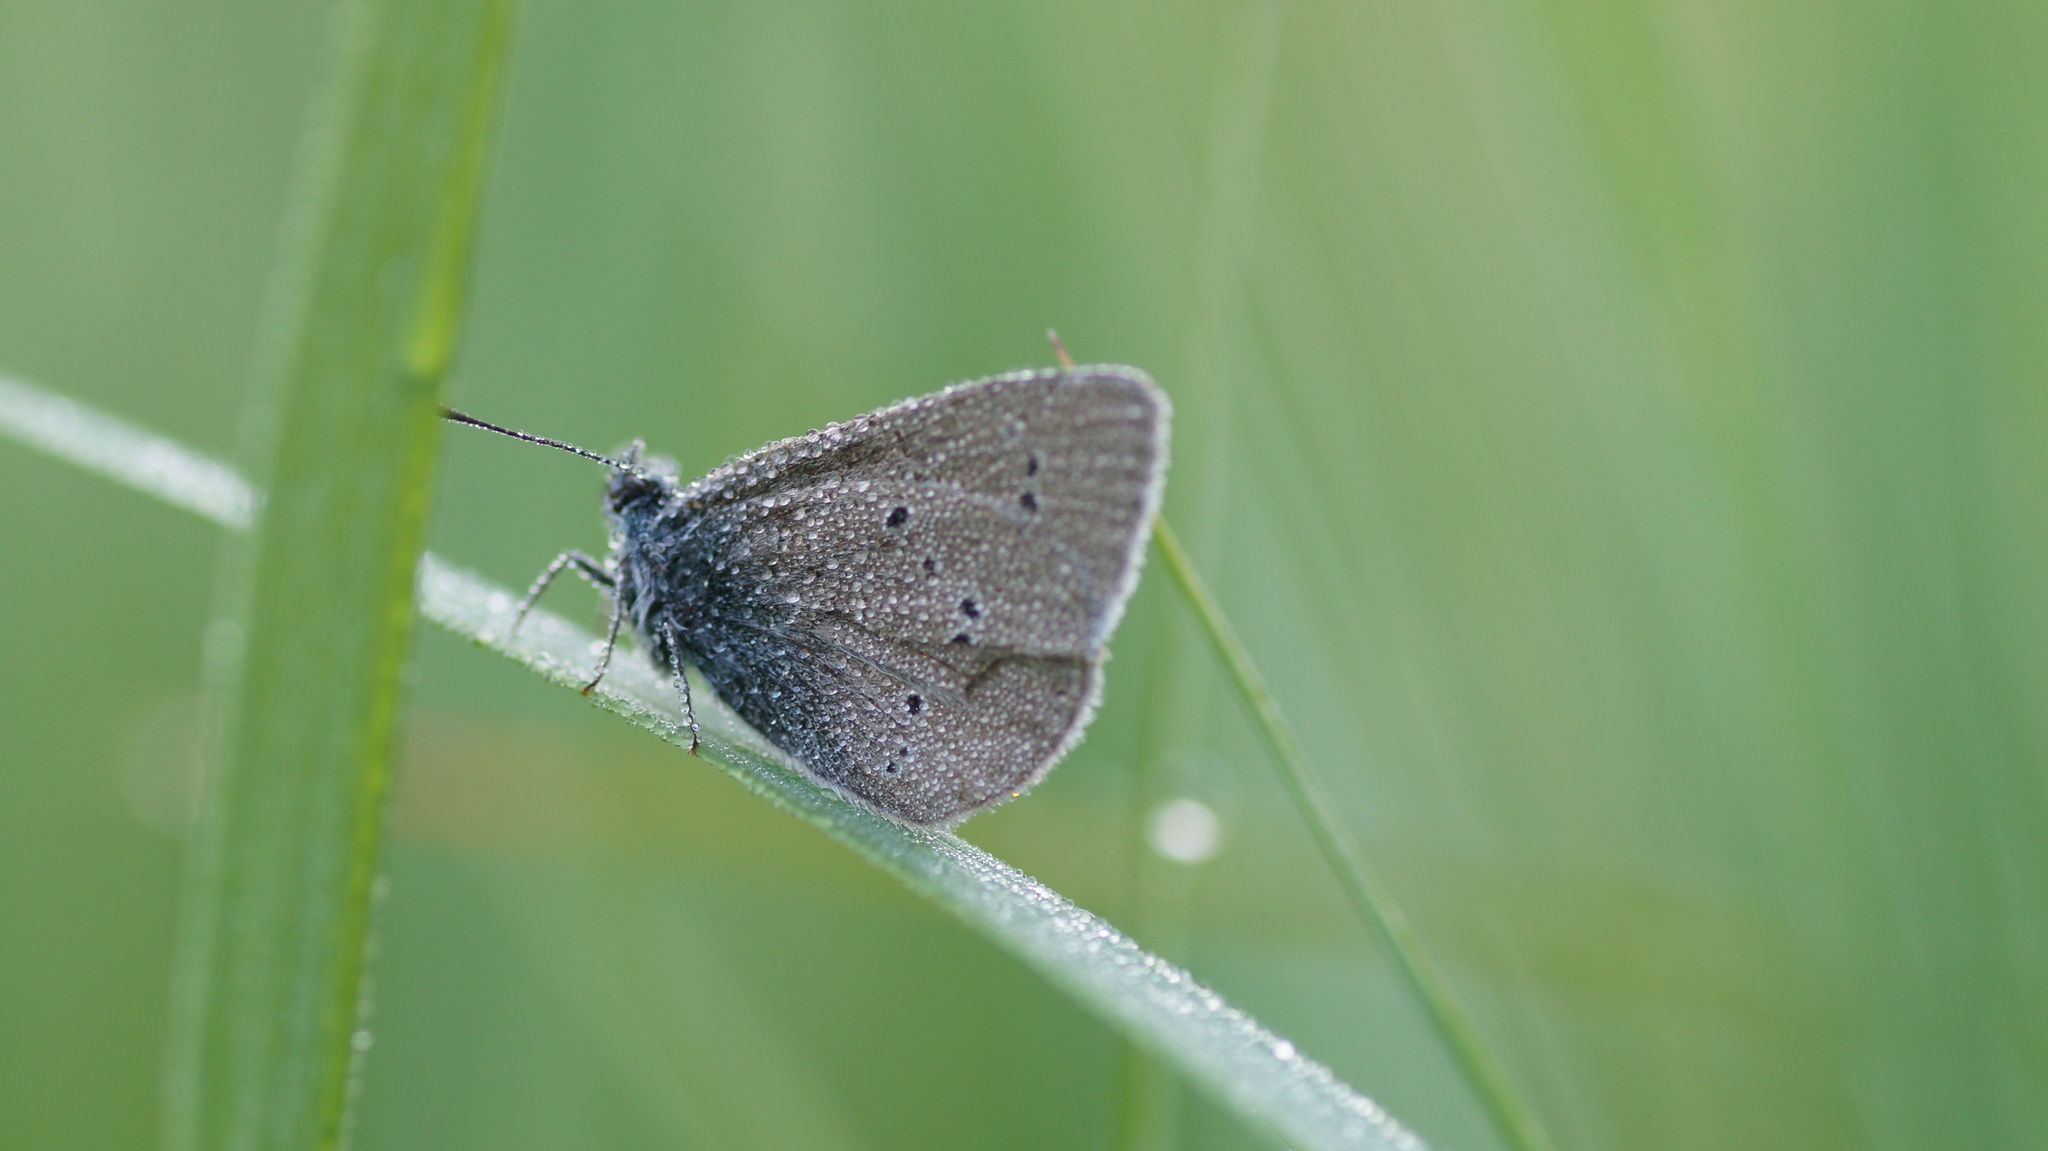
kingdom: Animalia
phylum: Arthropoda
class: Insecta
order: Lepidoptera
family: Lycaenidae
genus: Cupido
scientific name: Cupido minimus
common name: Small blue
